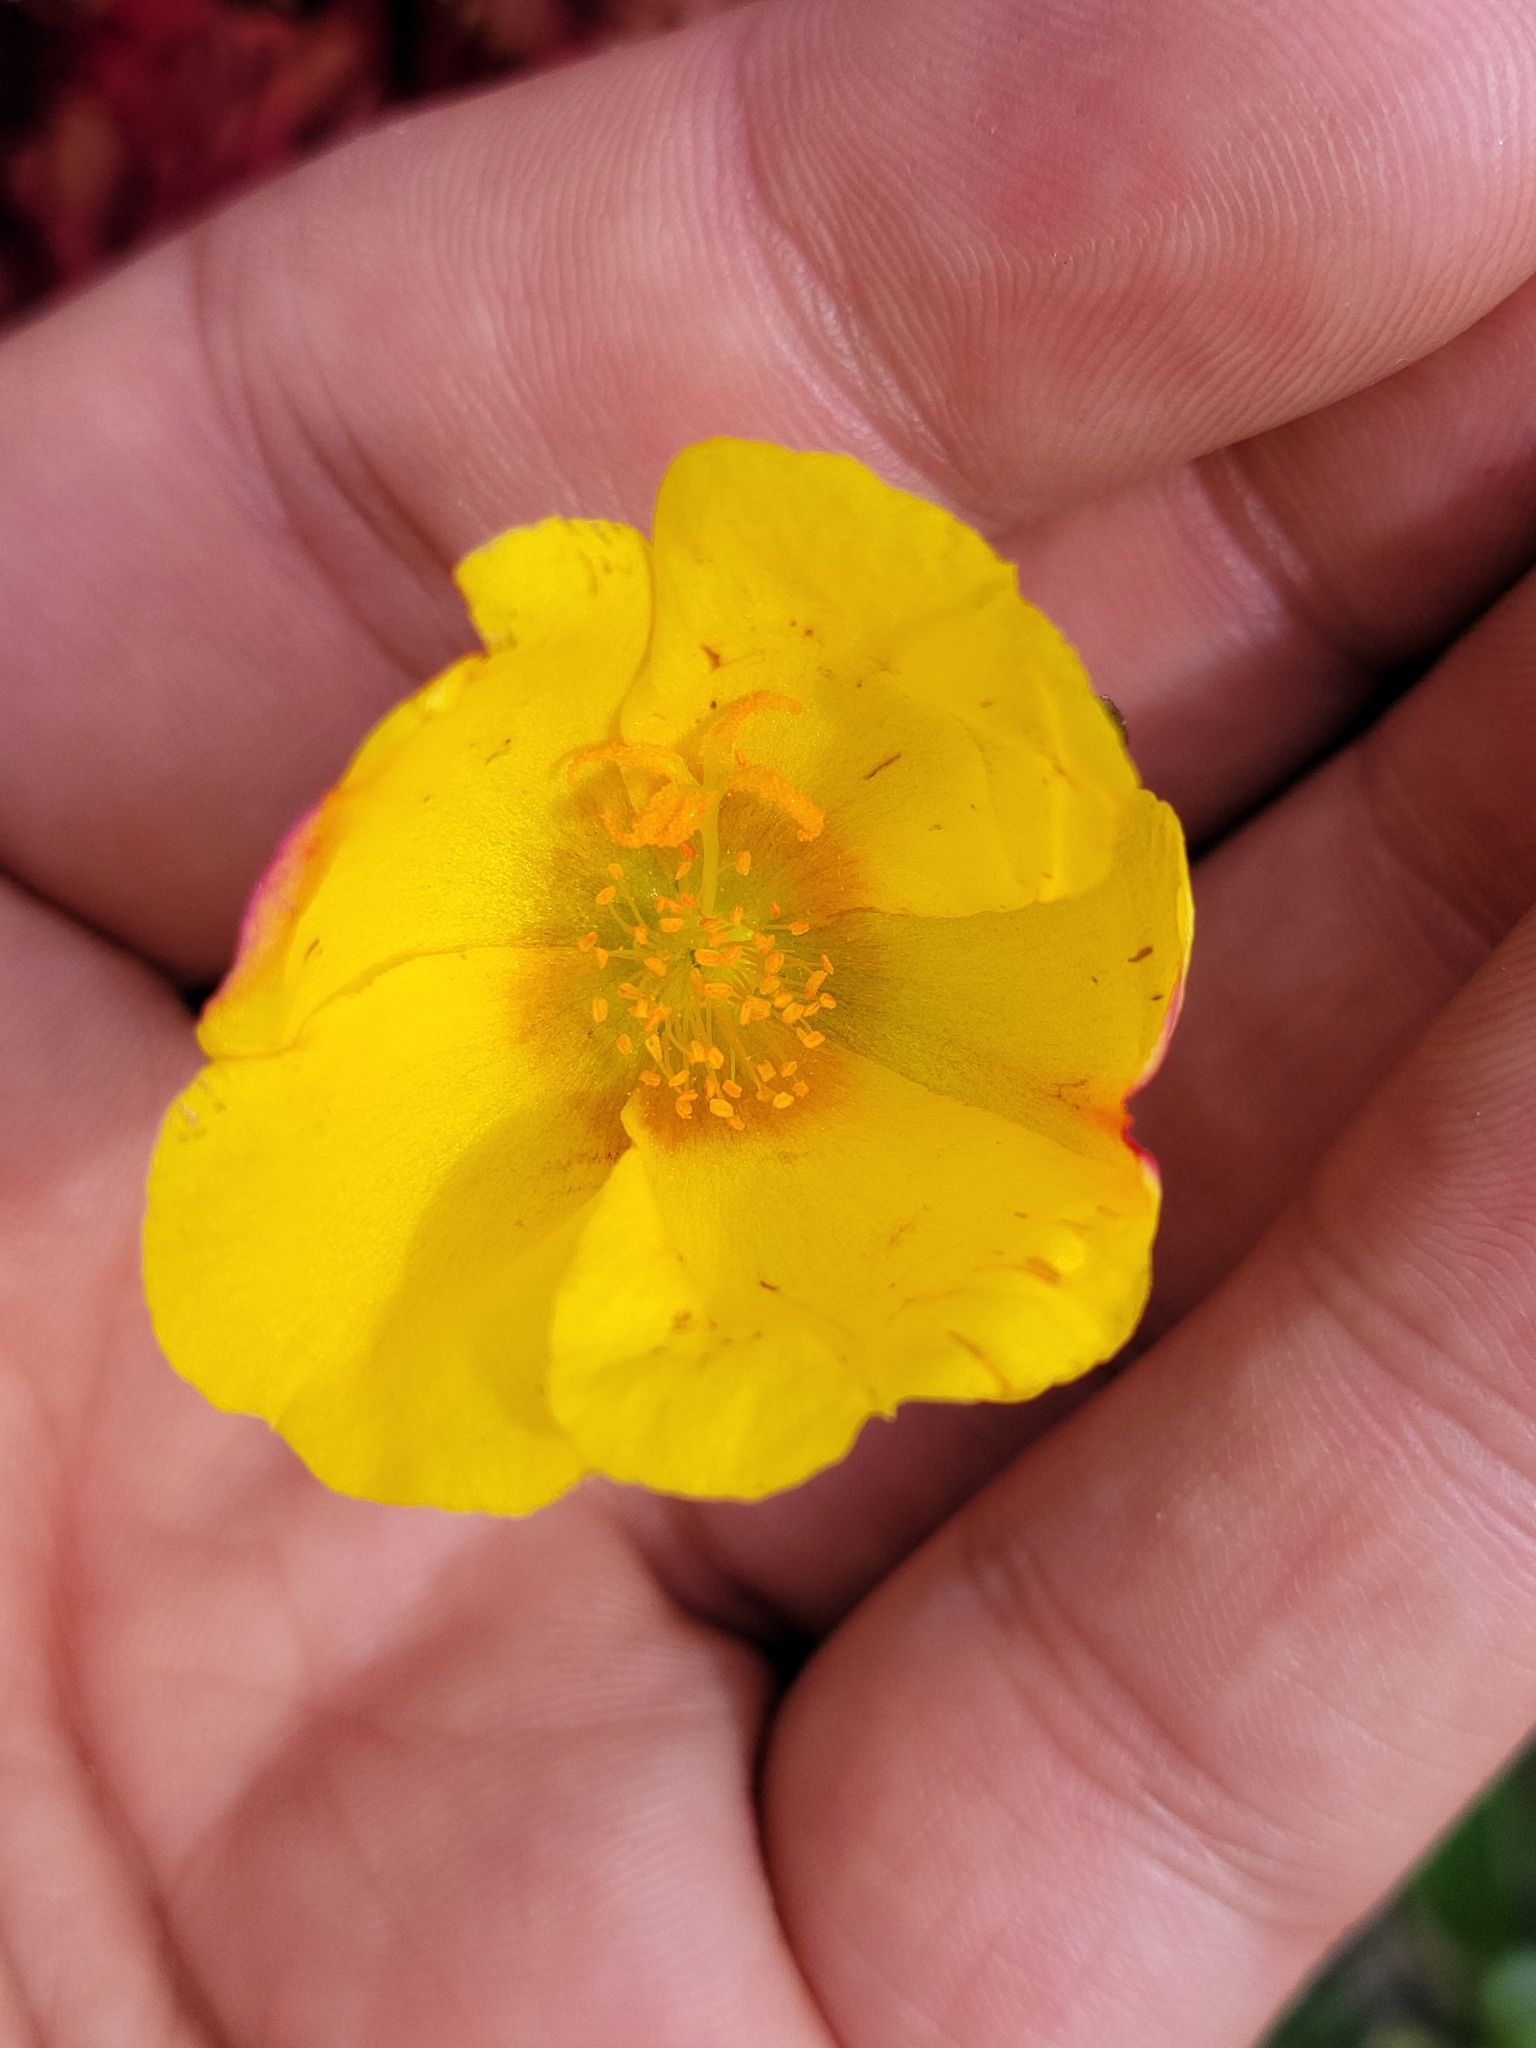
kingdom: Plantae
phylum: Tracheophyta
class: Magnoliopsida
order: Caryophyllales
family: Portulacaceae
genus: Portulaca
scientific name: Portulaca oleracea
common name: Common purslane
